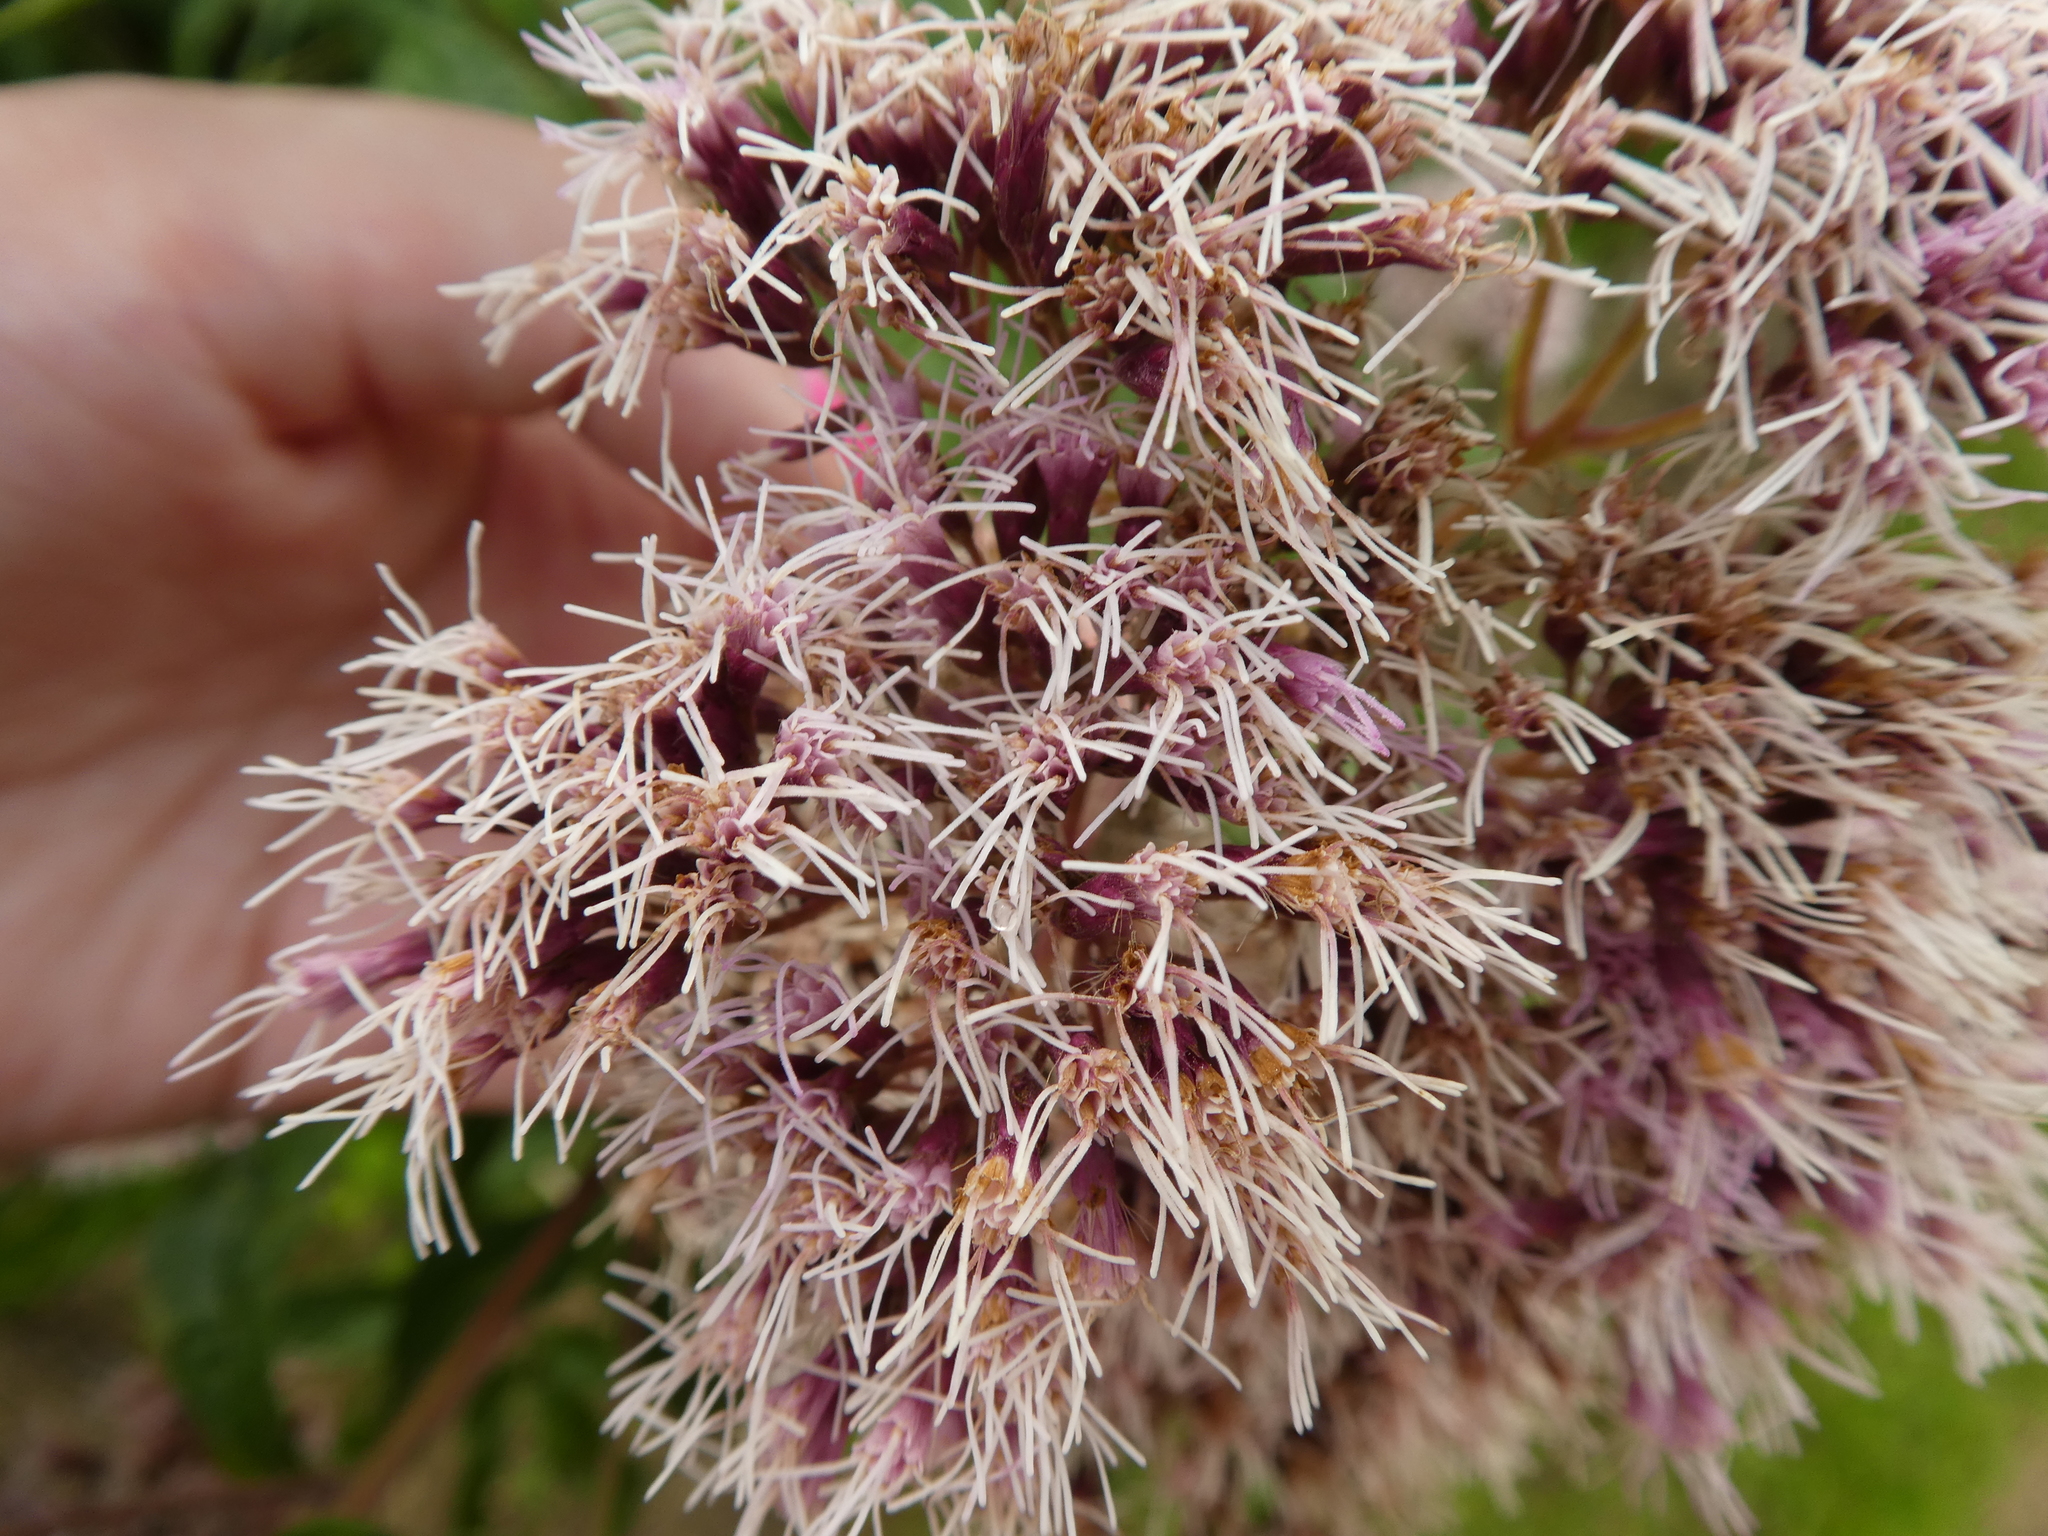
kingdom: Plantae
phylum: Tracheophyta
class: Magnoliopsida
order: Asterales
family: Asteraceae
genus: Eupatorium
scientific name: Eupatorium cannabinum
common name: Hemp-agrimony
